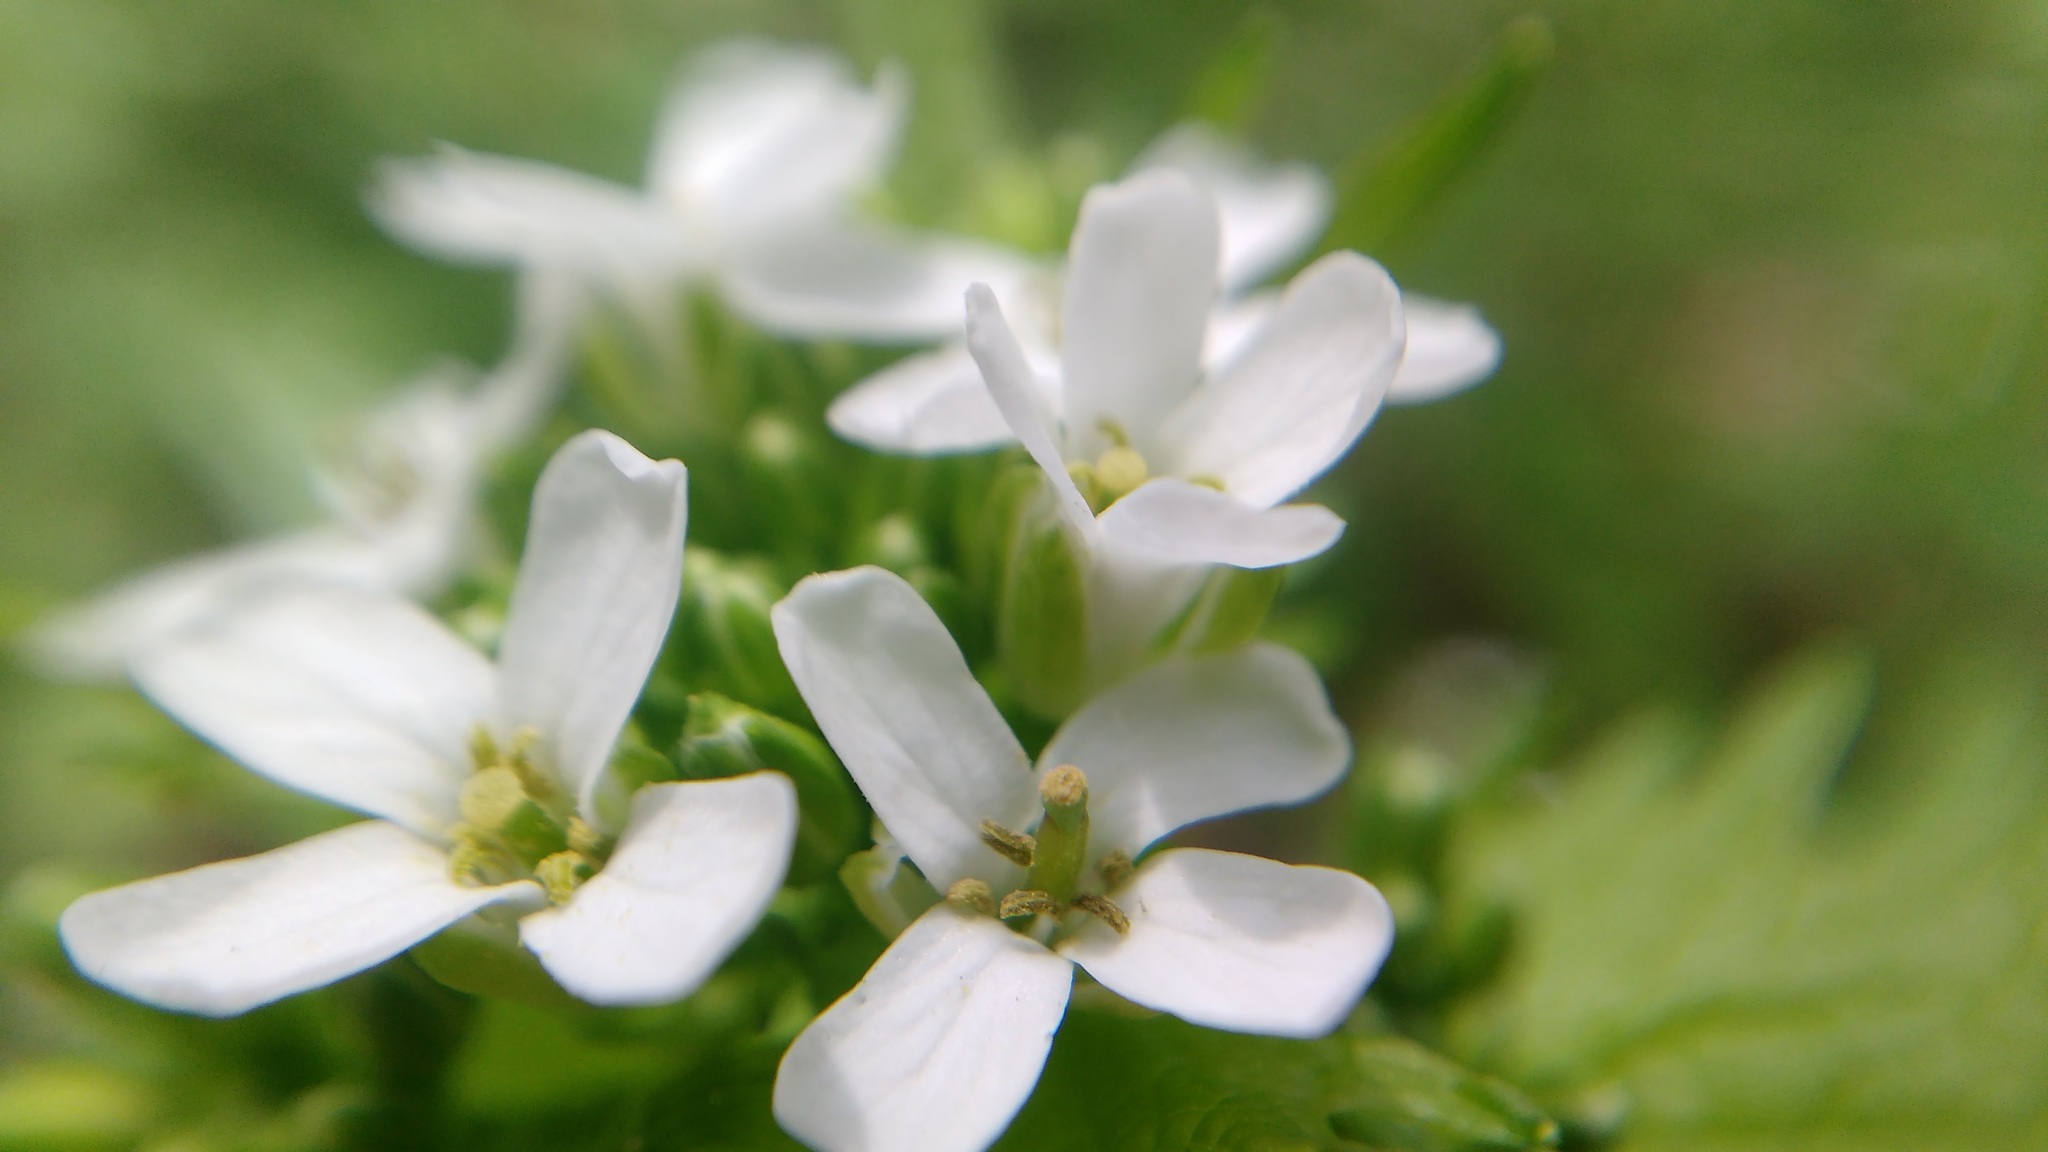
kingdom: Plantae
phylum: Tracheophyta
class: Magnoliopsida
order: Brassicales
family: Brassicaceae
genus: Alliaria
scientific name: Alliaria petiolata
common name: Garlic mustard
